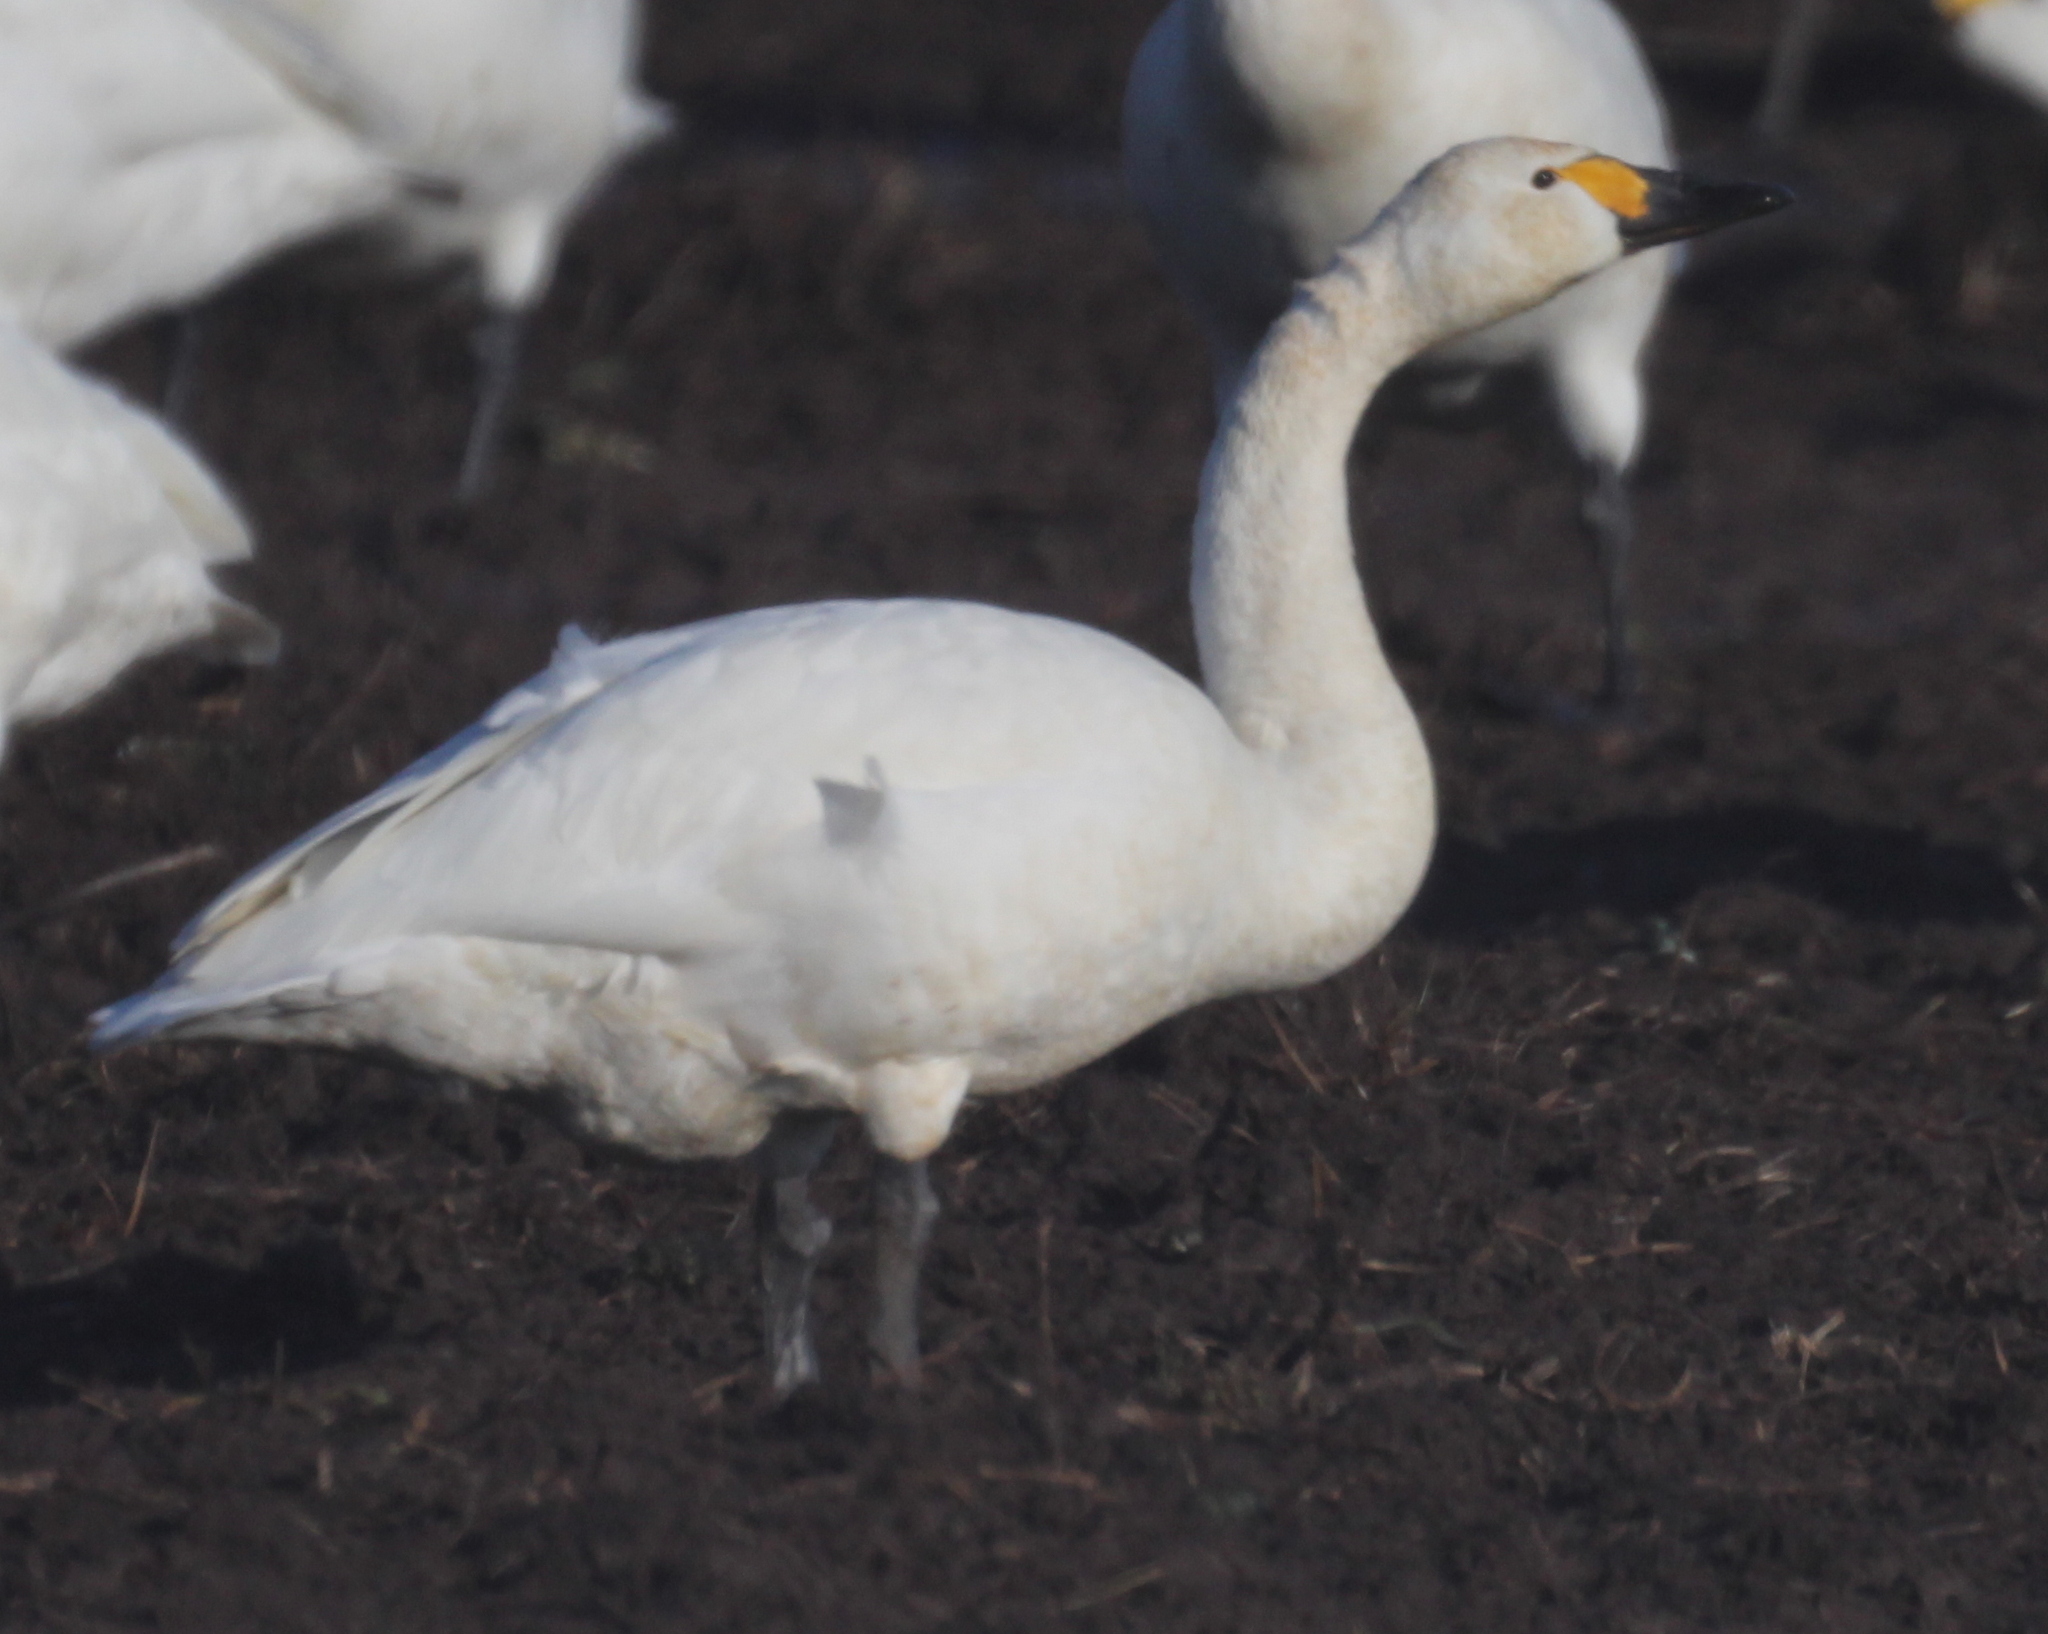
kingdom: Animalia
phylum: Chordata
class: Aves
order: Anseriformes
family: Anatidae
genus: Cygnus
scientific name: Cygnus columbianus
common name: Tundra swan
